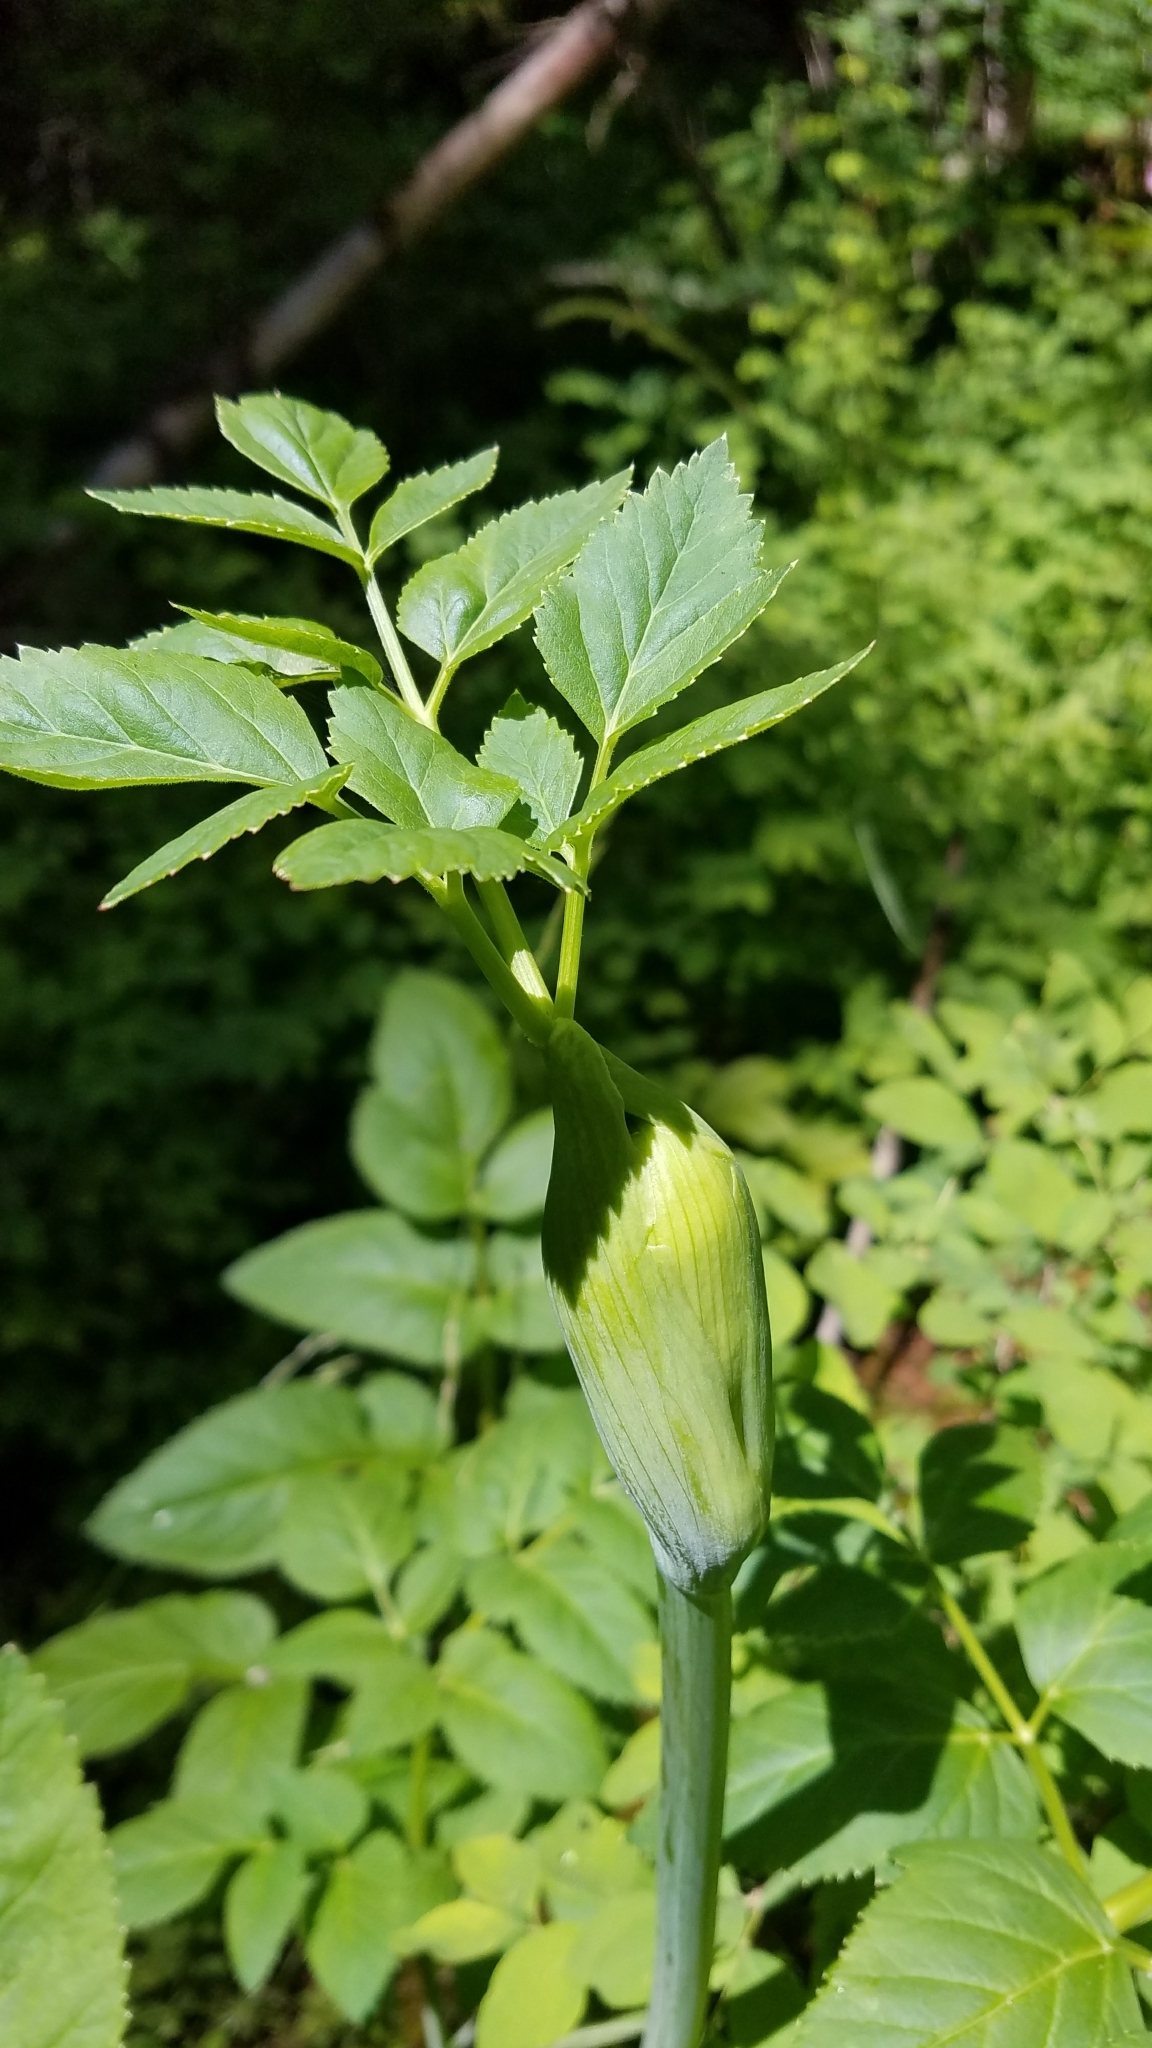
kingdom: Plantae
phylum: Tracheophyta
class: Magnoliopsida
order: Apiales
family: Apiaceae
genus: Angelica
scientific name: Angelica arguta
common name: Lyall's angelica
